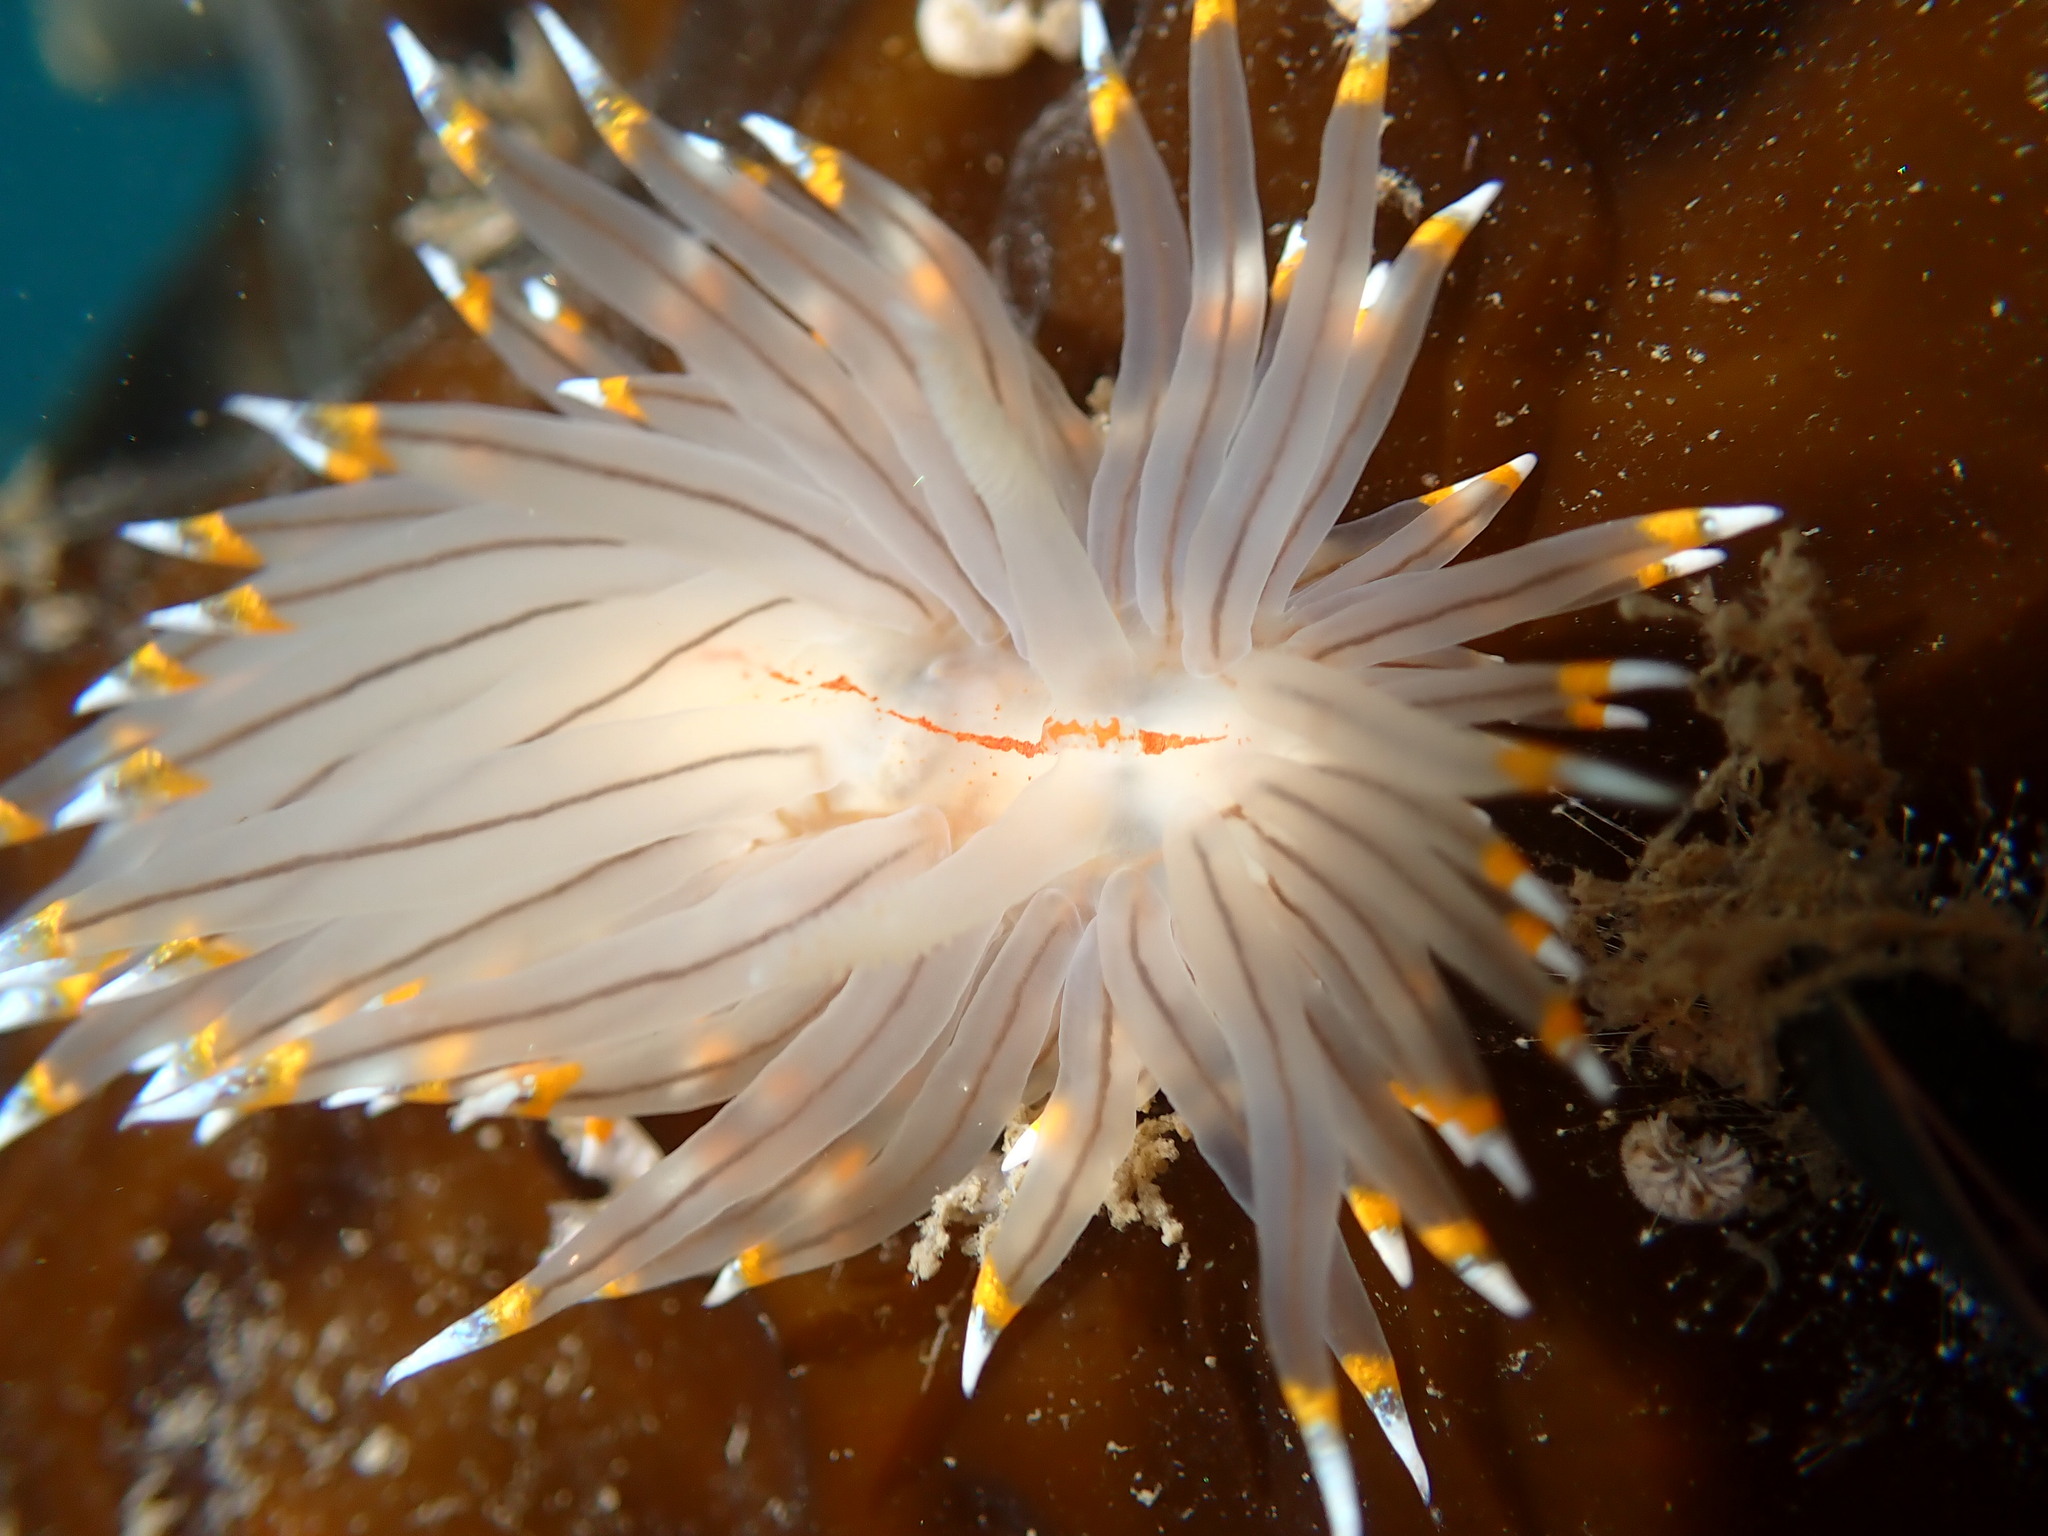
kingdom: Animalia
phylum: Mollusca
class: Gastropoda
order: Nudibranchia
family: Janolidae
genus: Antiopella
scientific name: Antiopella fusca
